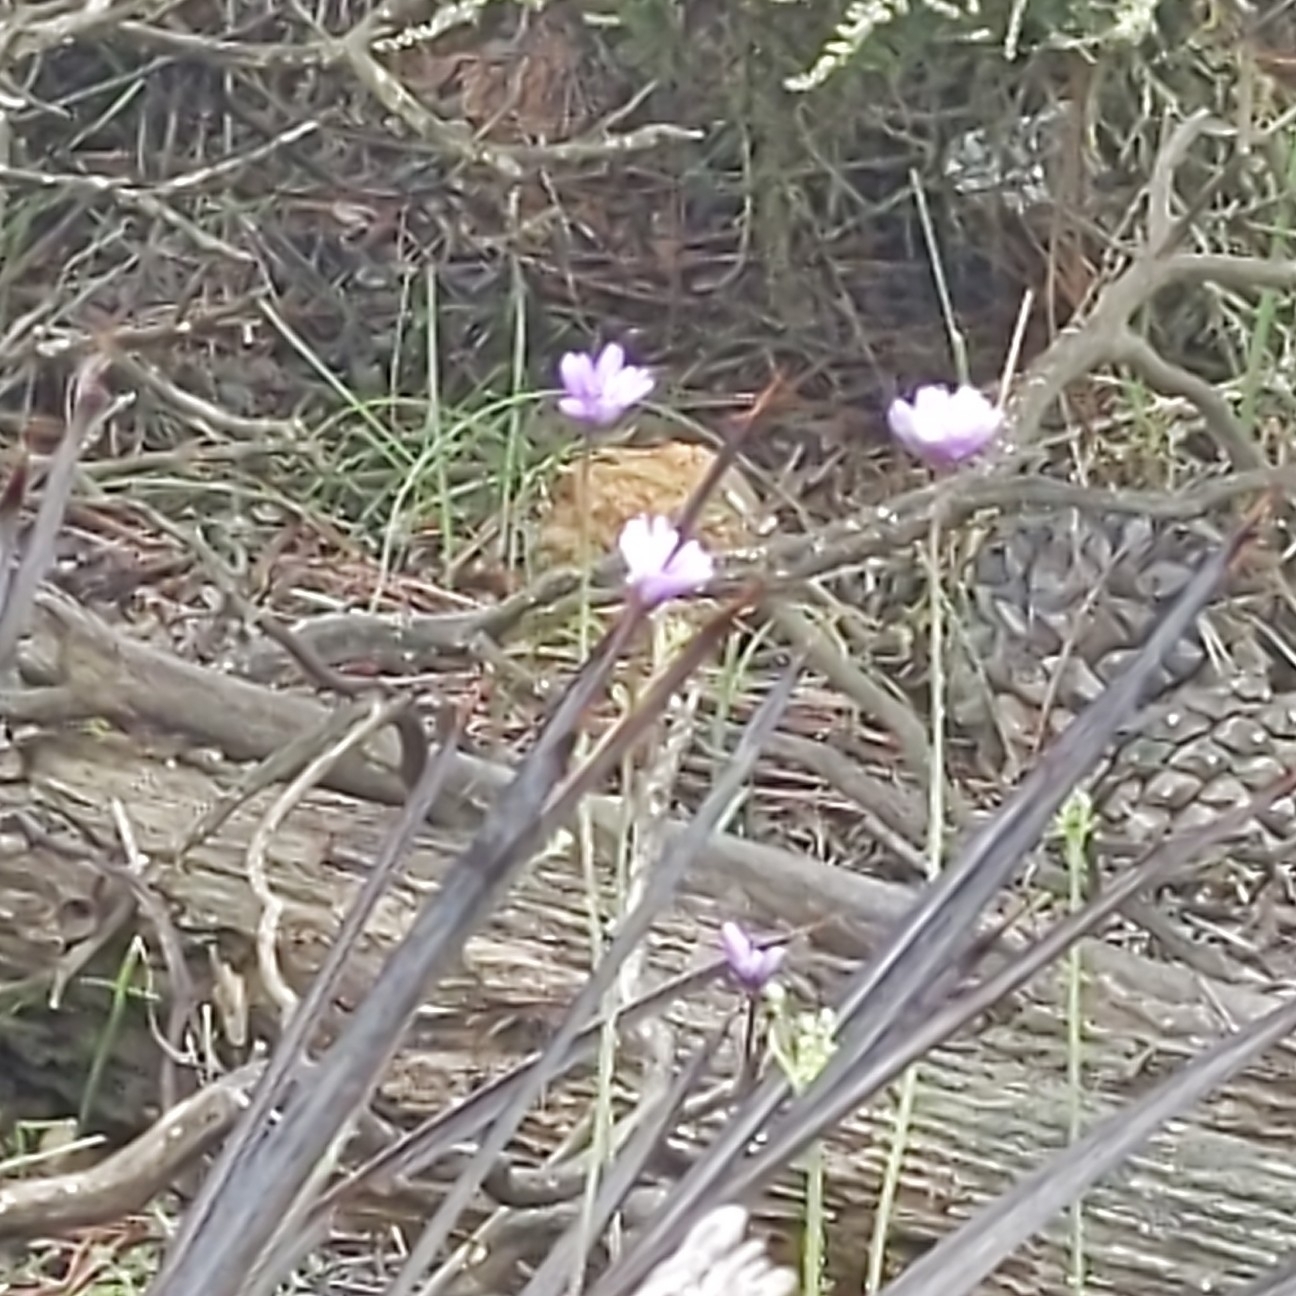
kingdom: Plantae
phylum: Tracheophyta
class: Liliopsida
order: Asparagales
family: Asparagaceae
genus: Dipterostemon
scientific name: Dipterostemon capitatus
